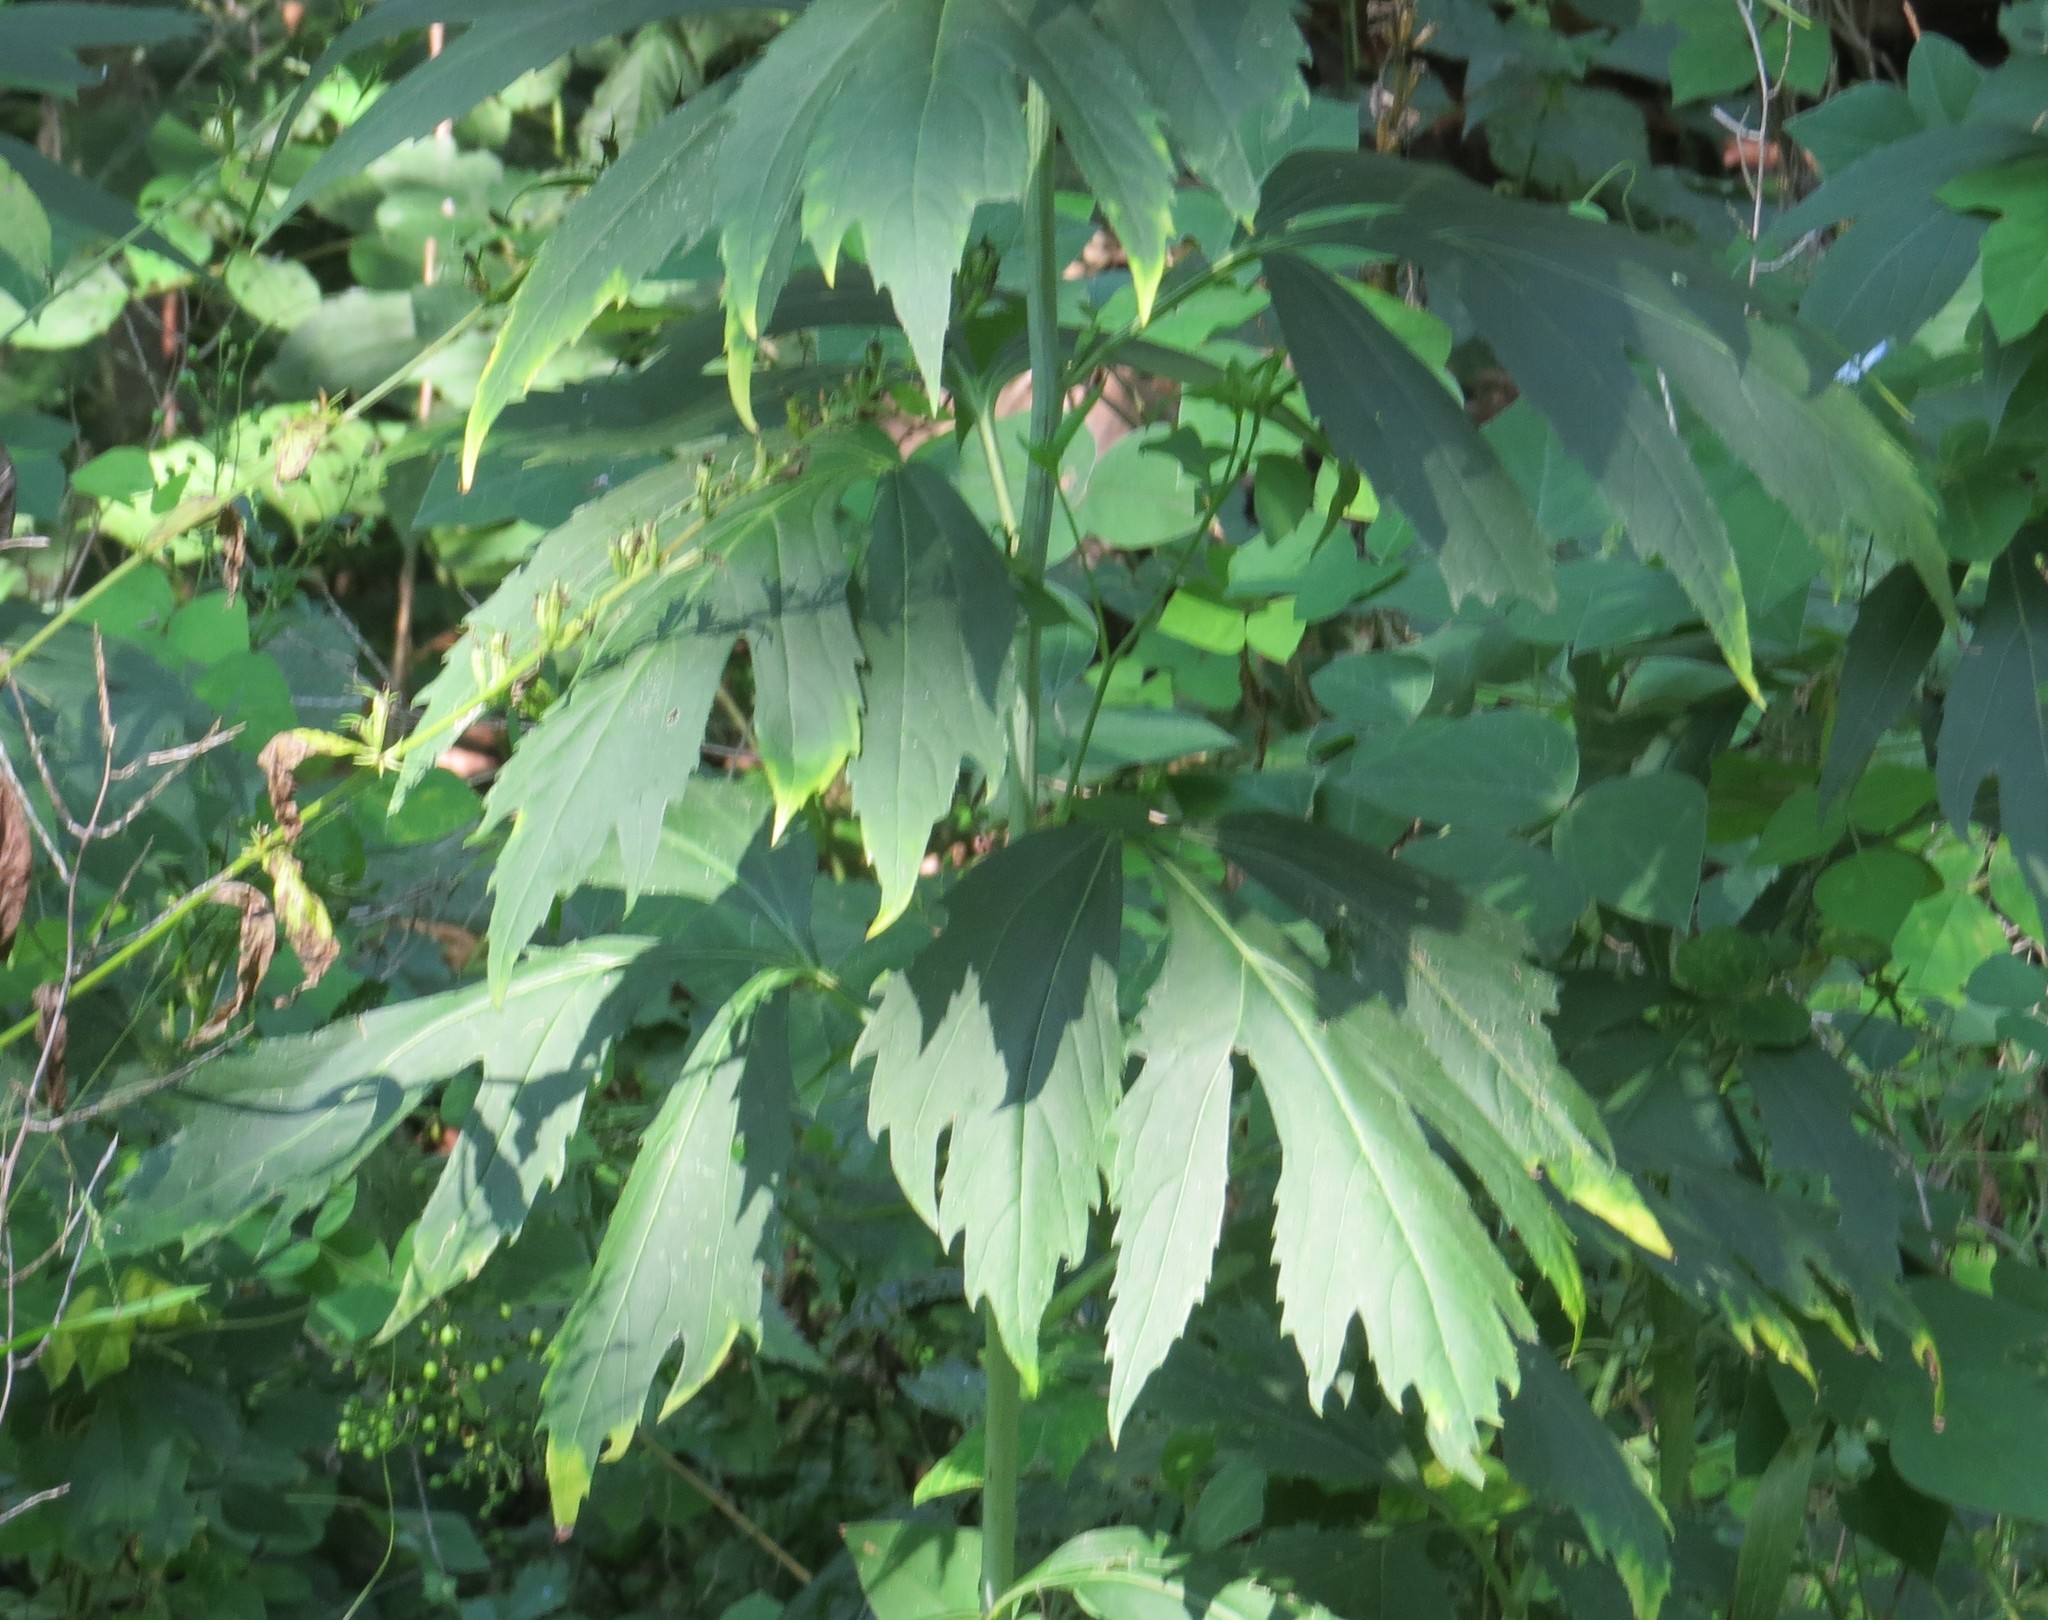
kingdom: Plantae
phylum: Tracheophyta
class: Magnoliopsida
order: Asterales
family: Asteraceae
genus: Rudbeckia
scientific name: Rudbeckia laciniata
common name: Coneflower
